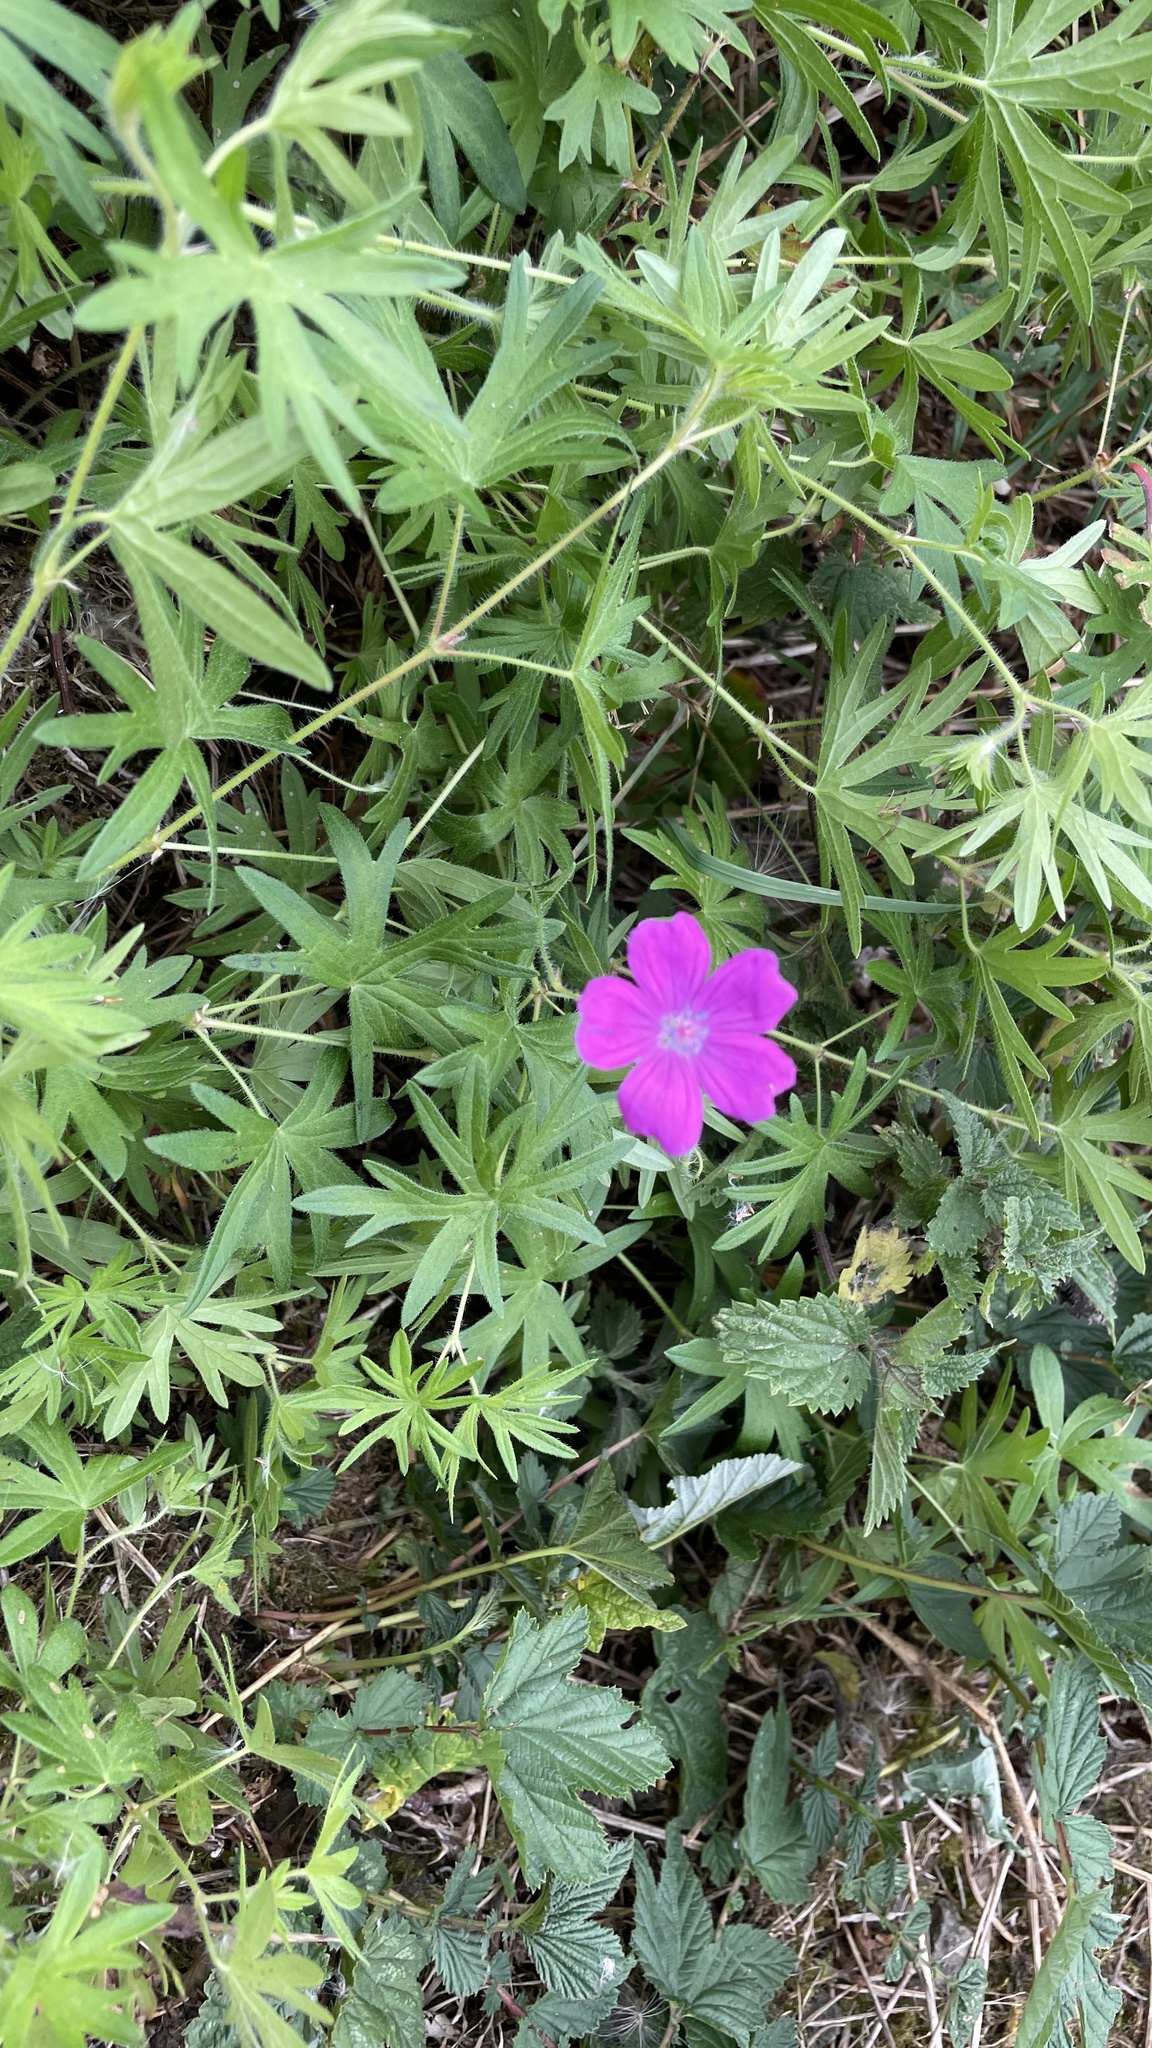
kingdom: Plantae
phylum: Tracheophyta
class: Magnoliopsida
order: Geraniales
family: Geraniaceae
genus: Geranium
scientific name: Geranium sanguineum
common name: Bloody crane's-bill
